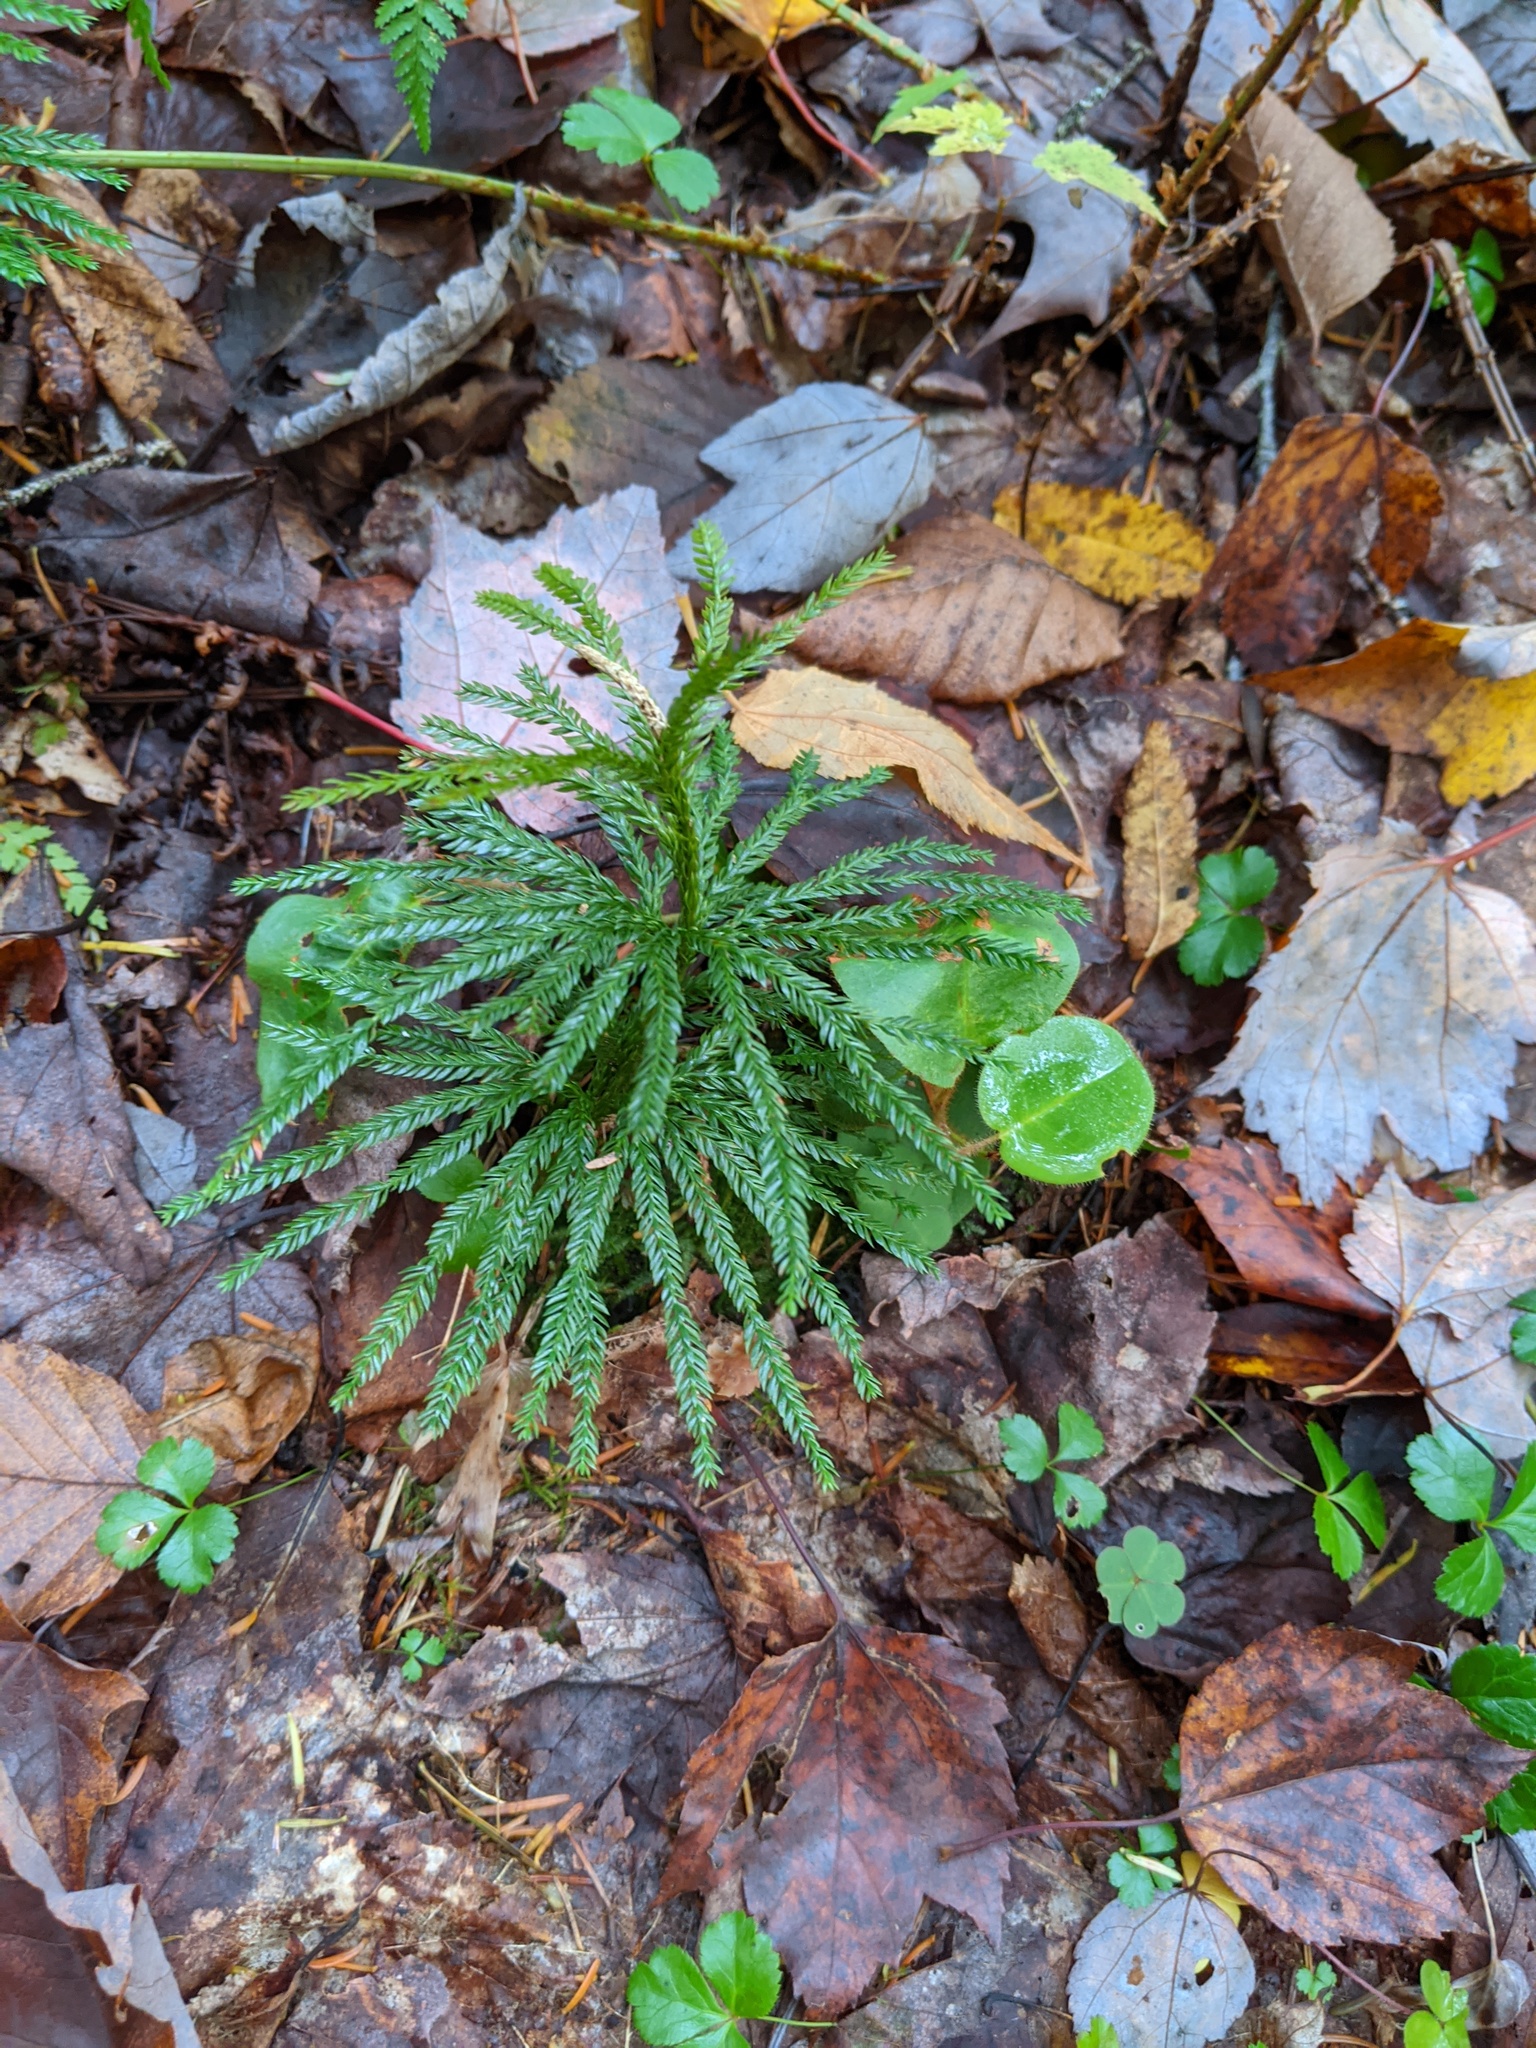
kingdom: Plantae
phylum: Tracheophyta
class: Lycopodiopsida
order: Lycopodiales
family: Lycopodiaceae
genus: Dendrolycopodium
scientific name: Dendrolycopodium obscurum
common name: Common ground-pine
